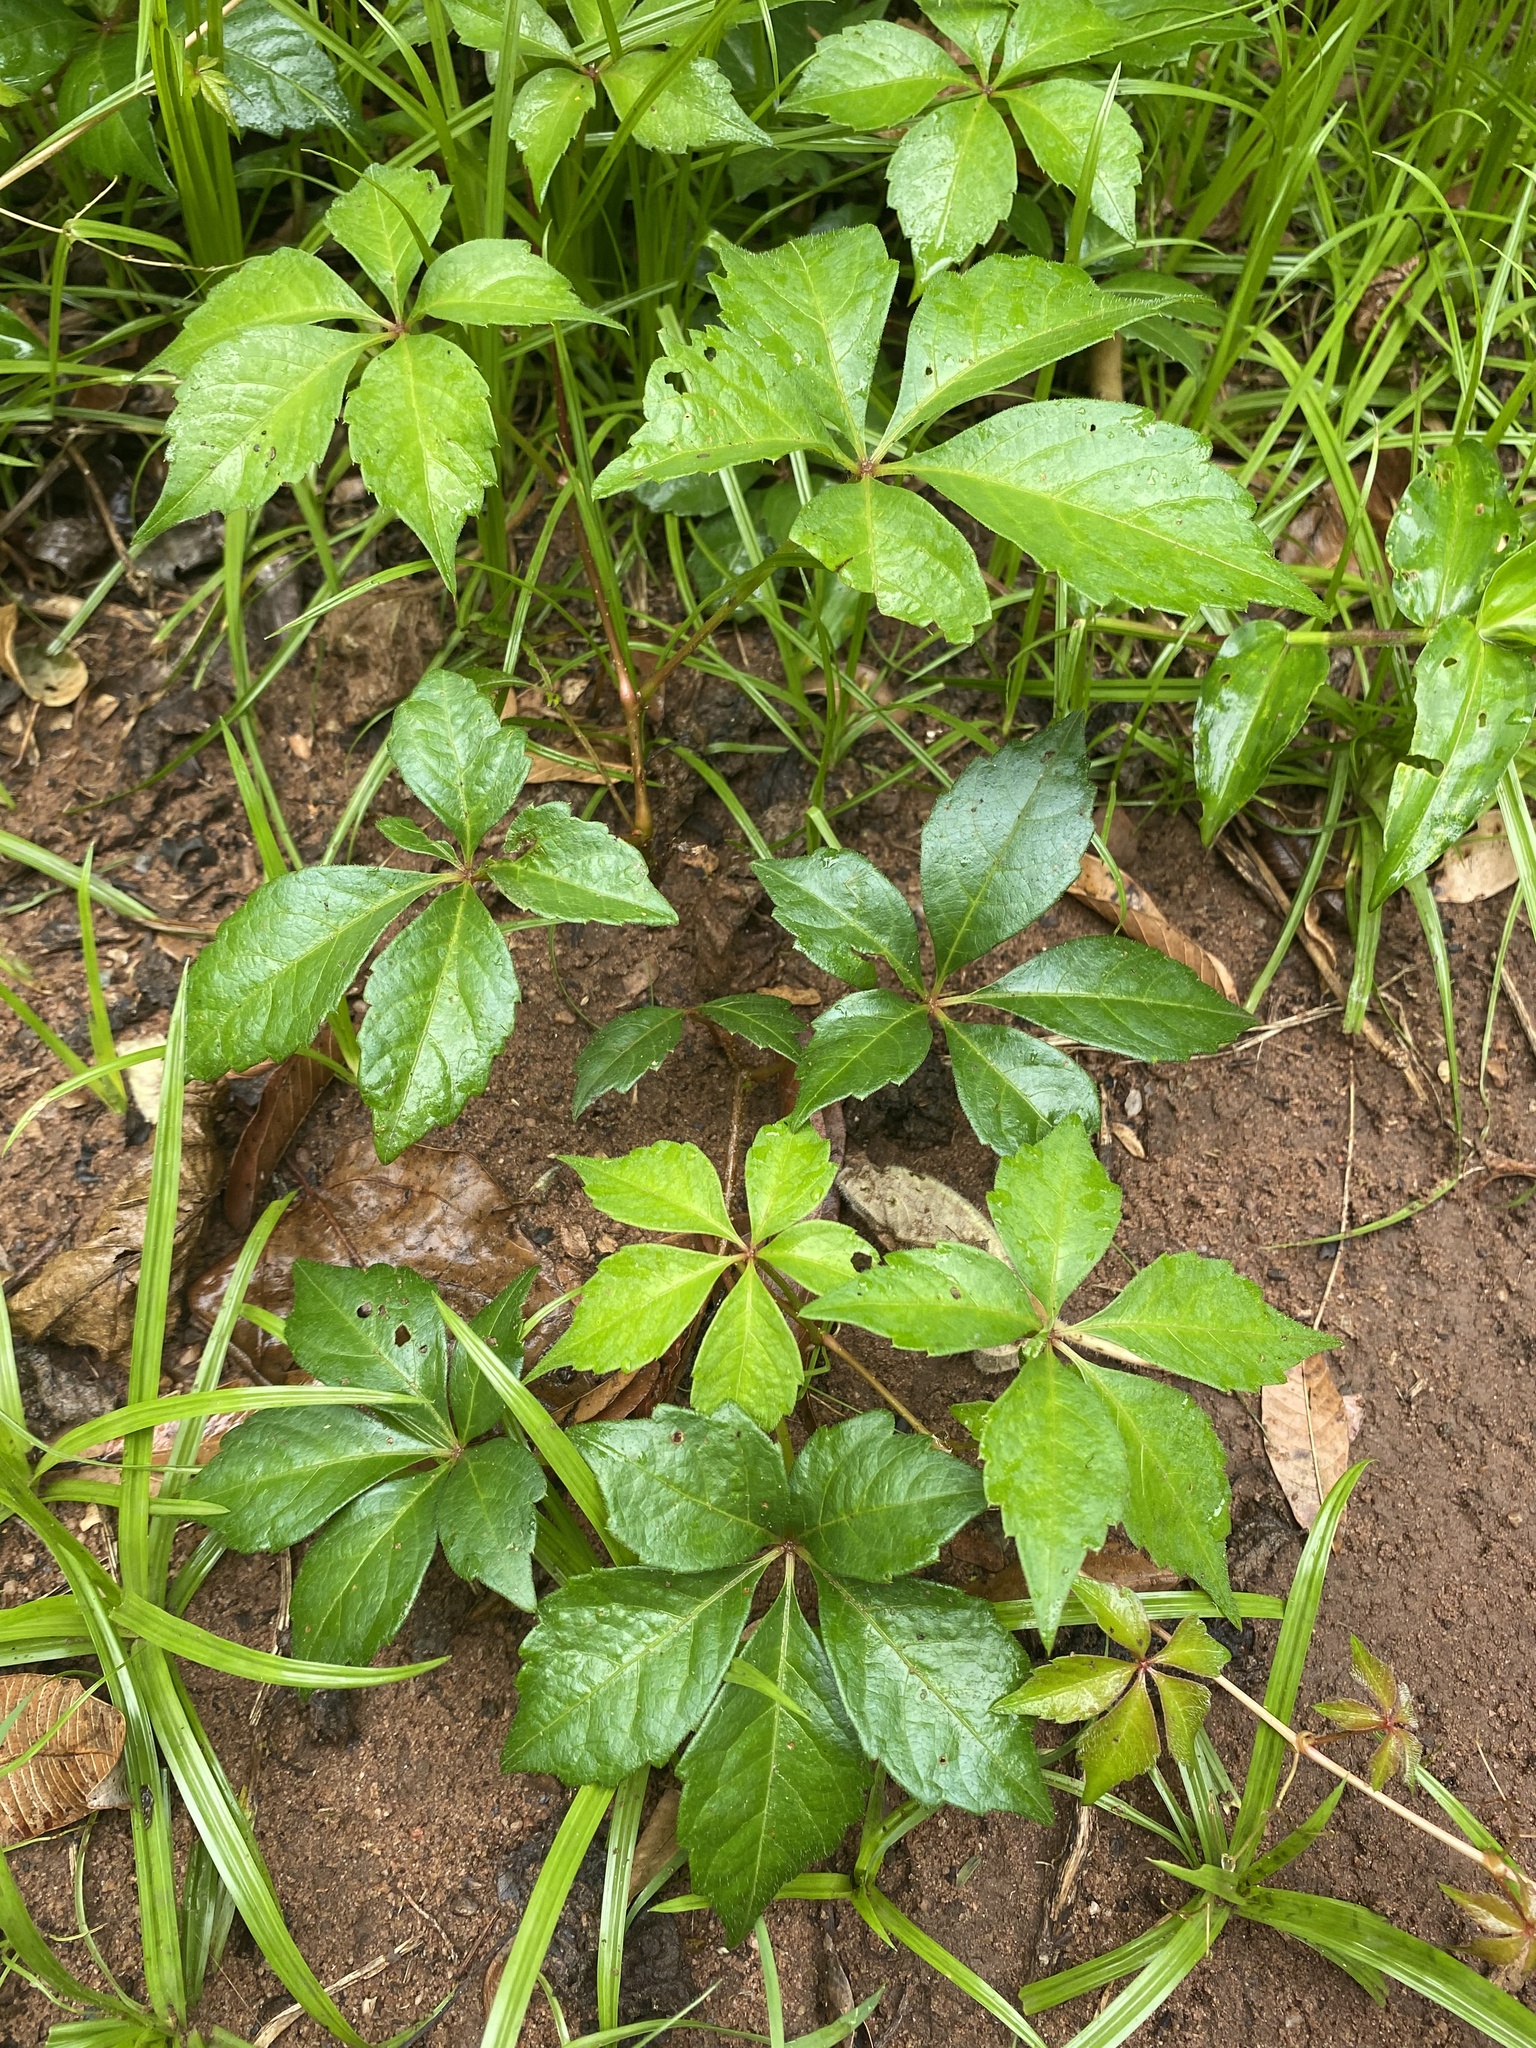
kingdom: Plantae
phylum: Tracheophyta
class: Magnoliopsida
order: Vitales
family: Vitaceae
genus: Parthenocissus
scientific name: Parthenocissus quinquefolia
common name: Virginia-creeper
